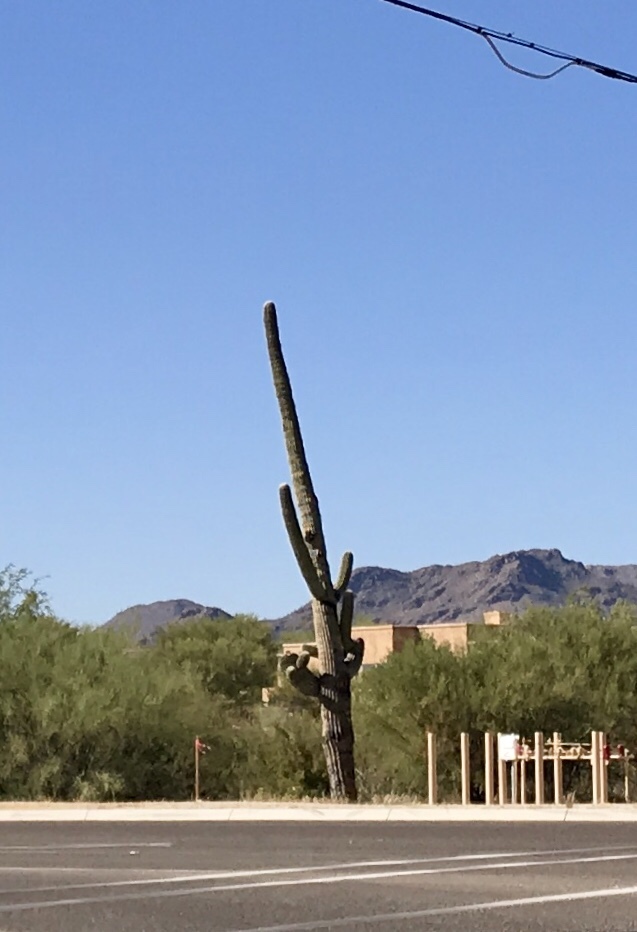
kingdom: Plantae
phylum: Tracheophyta
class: Magnoliopsida
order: Caryophyllales
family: Cactaceae
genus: Carnegiea
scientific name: Carnegiea gigantea
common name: Saguaro
